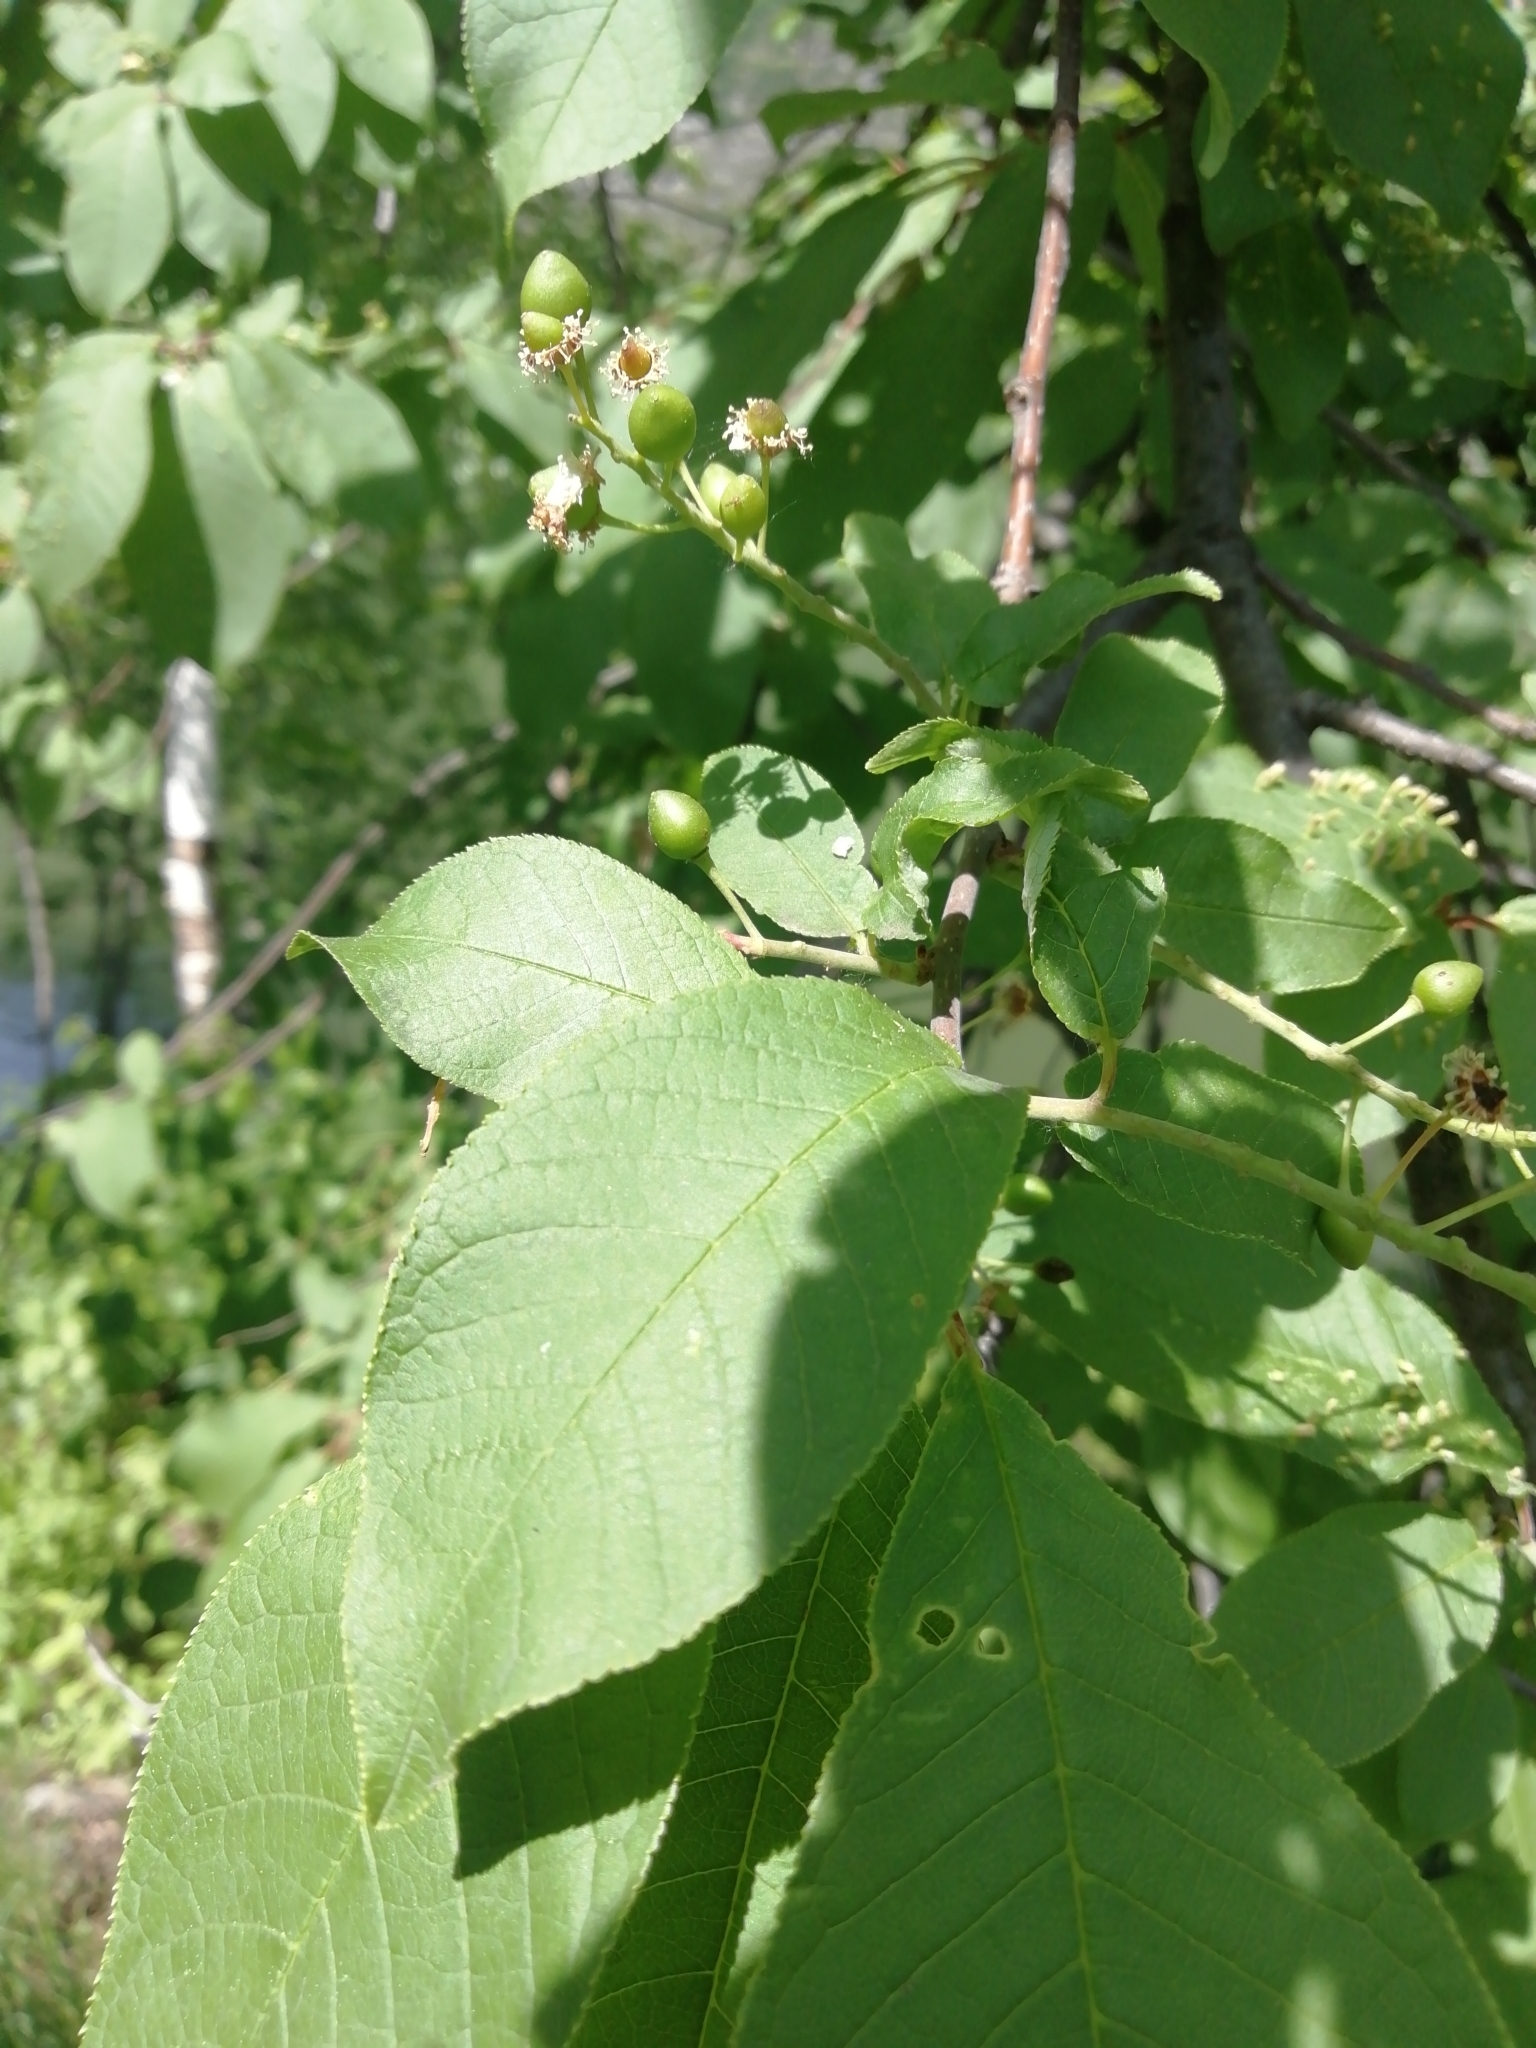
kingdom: Plantae
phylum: Tracheophyta
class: Magnoliopsida
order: Rosales
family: Rosaceae
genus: Prunus
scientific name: Prunus padus
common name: Bird cherry
